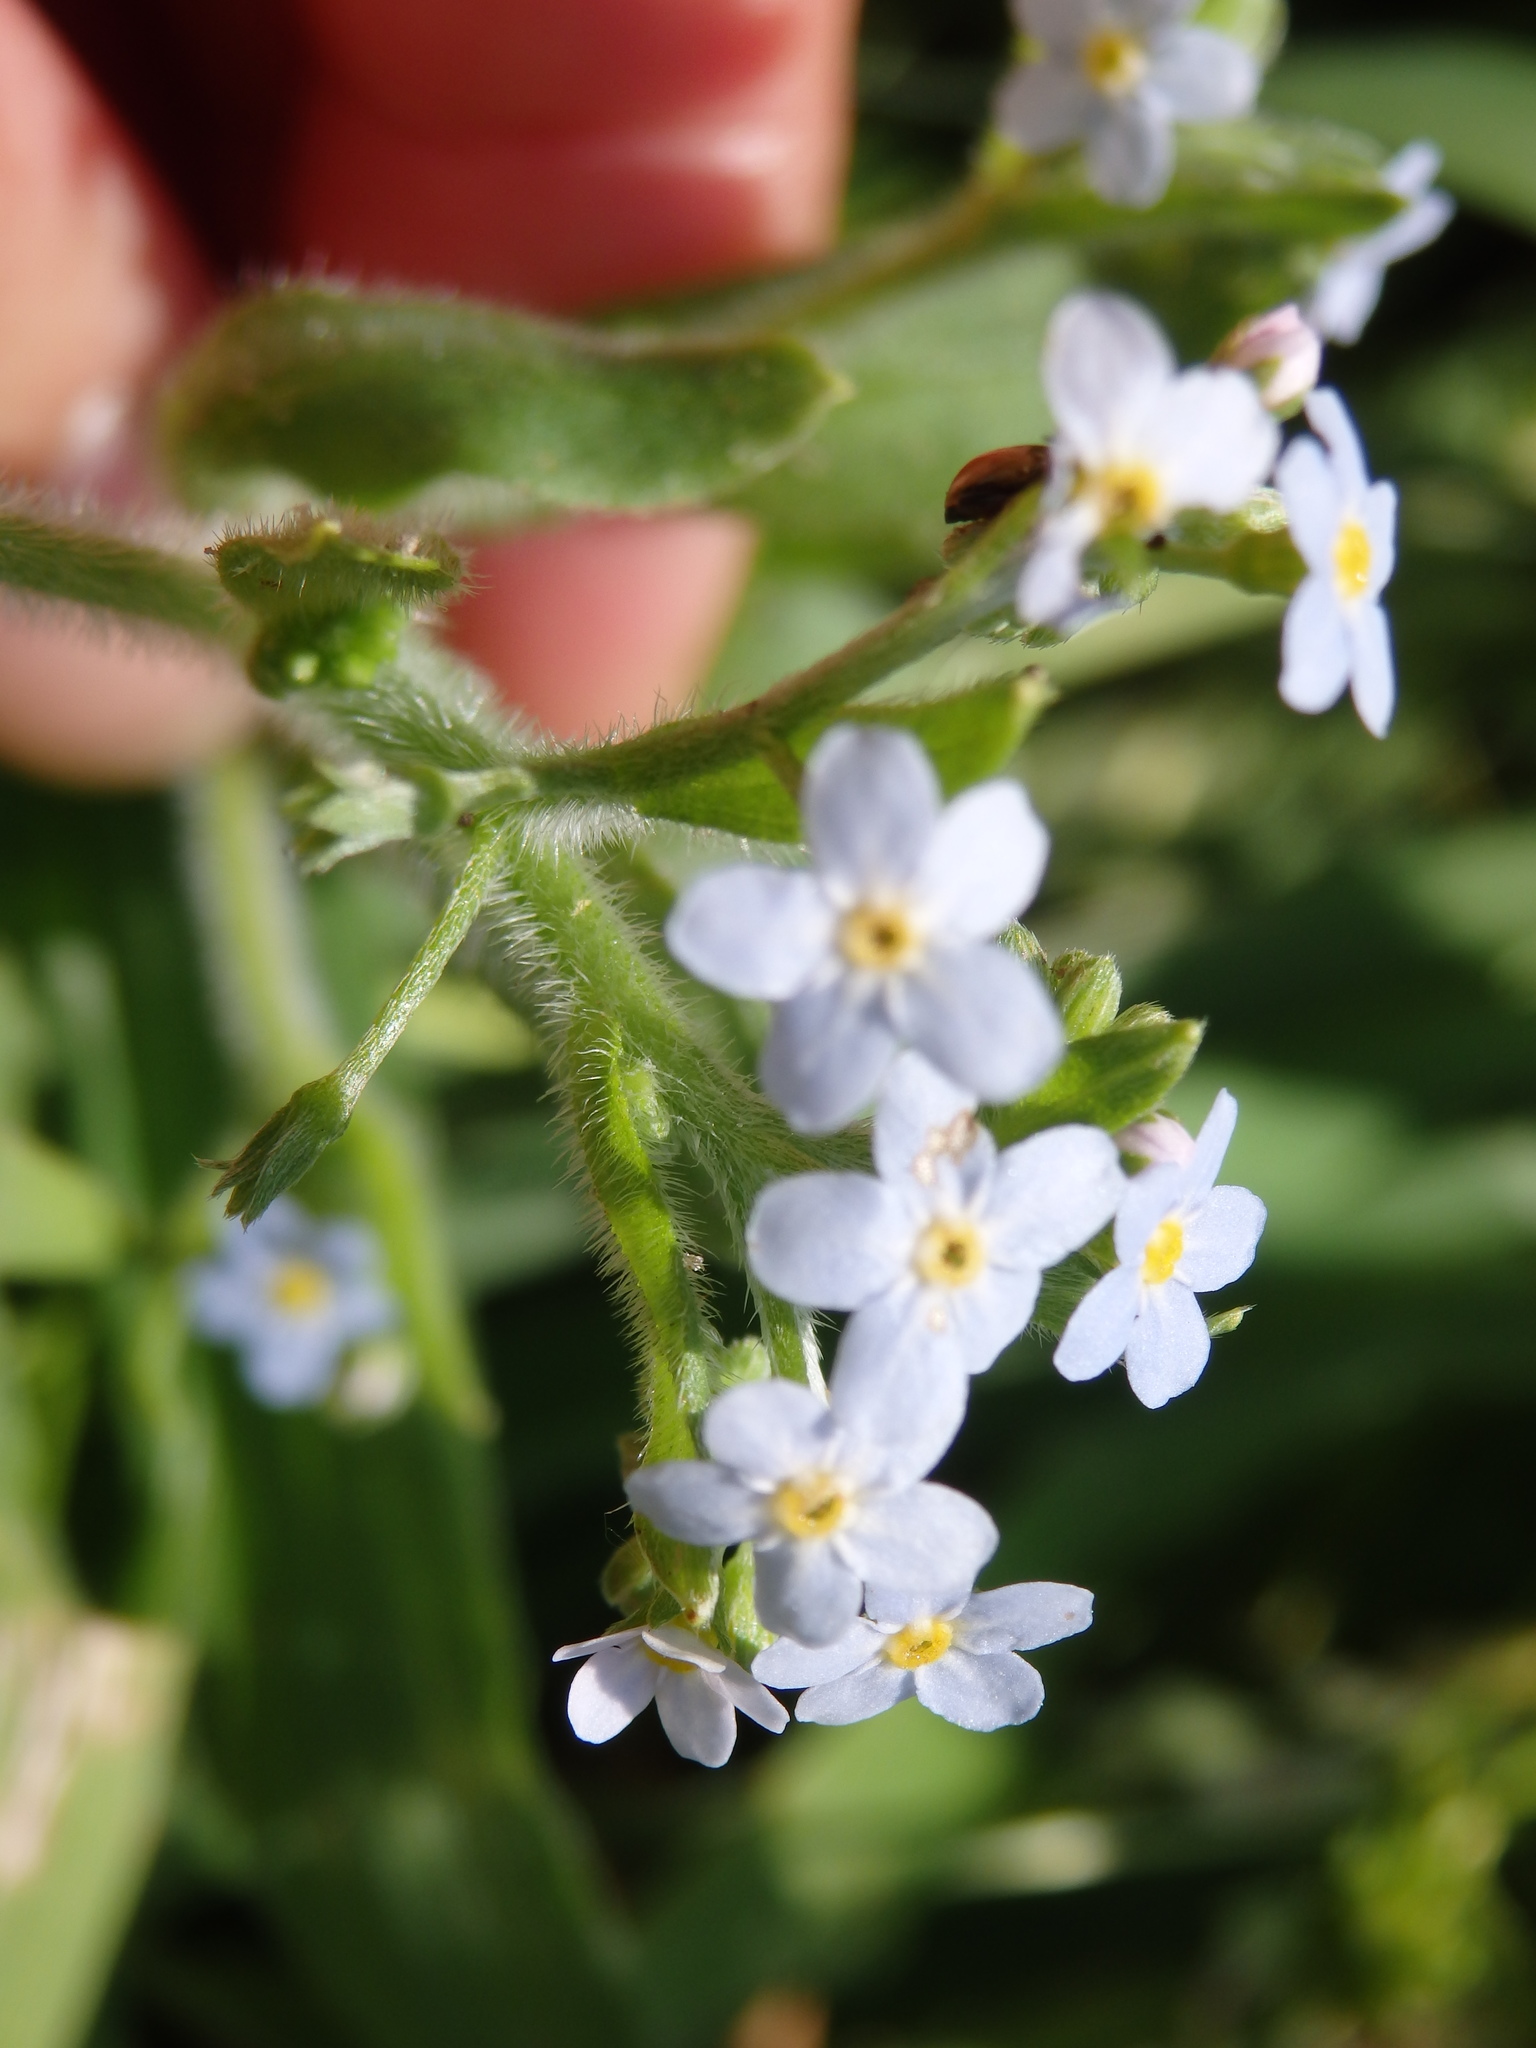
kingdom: Plantae
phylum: Tracheophyta
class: Magnoliopsida
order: Boraginales
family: Boraginaceae
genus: Myosotis
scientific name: Myosotis welwitschii
